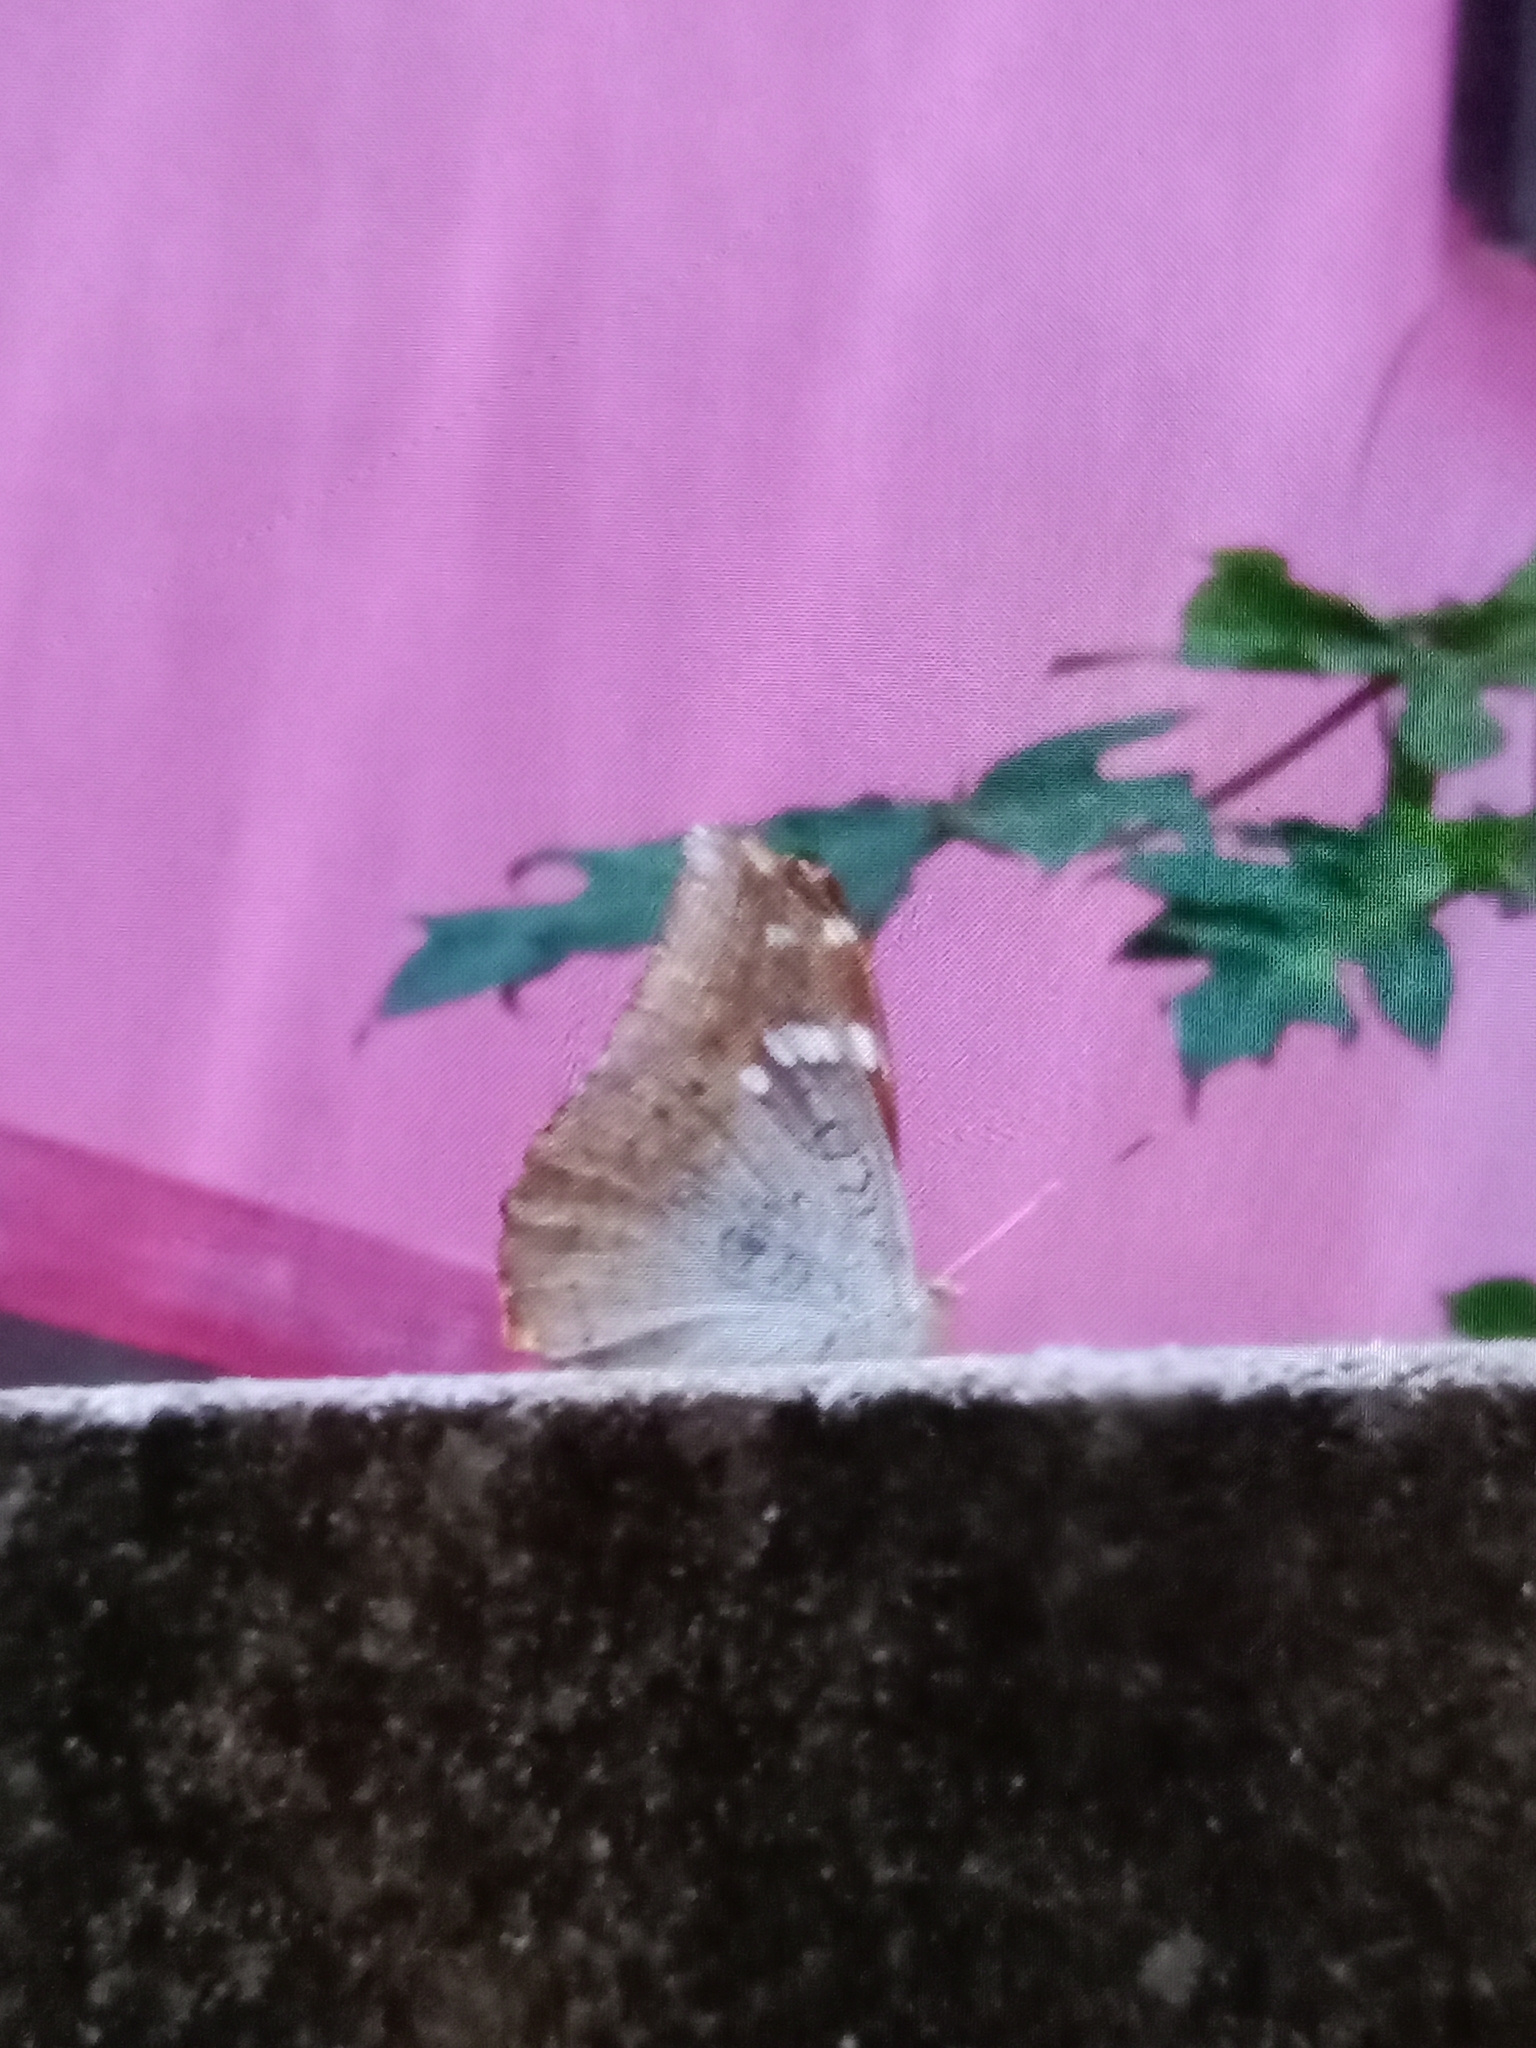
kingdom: Animalia
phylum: Arthropoda
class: Insecta
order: Lepidoptera
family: Nymphalidae
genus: Euthalia
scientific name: Euthalia aconthea
